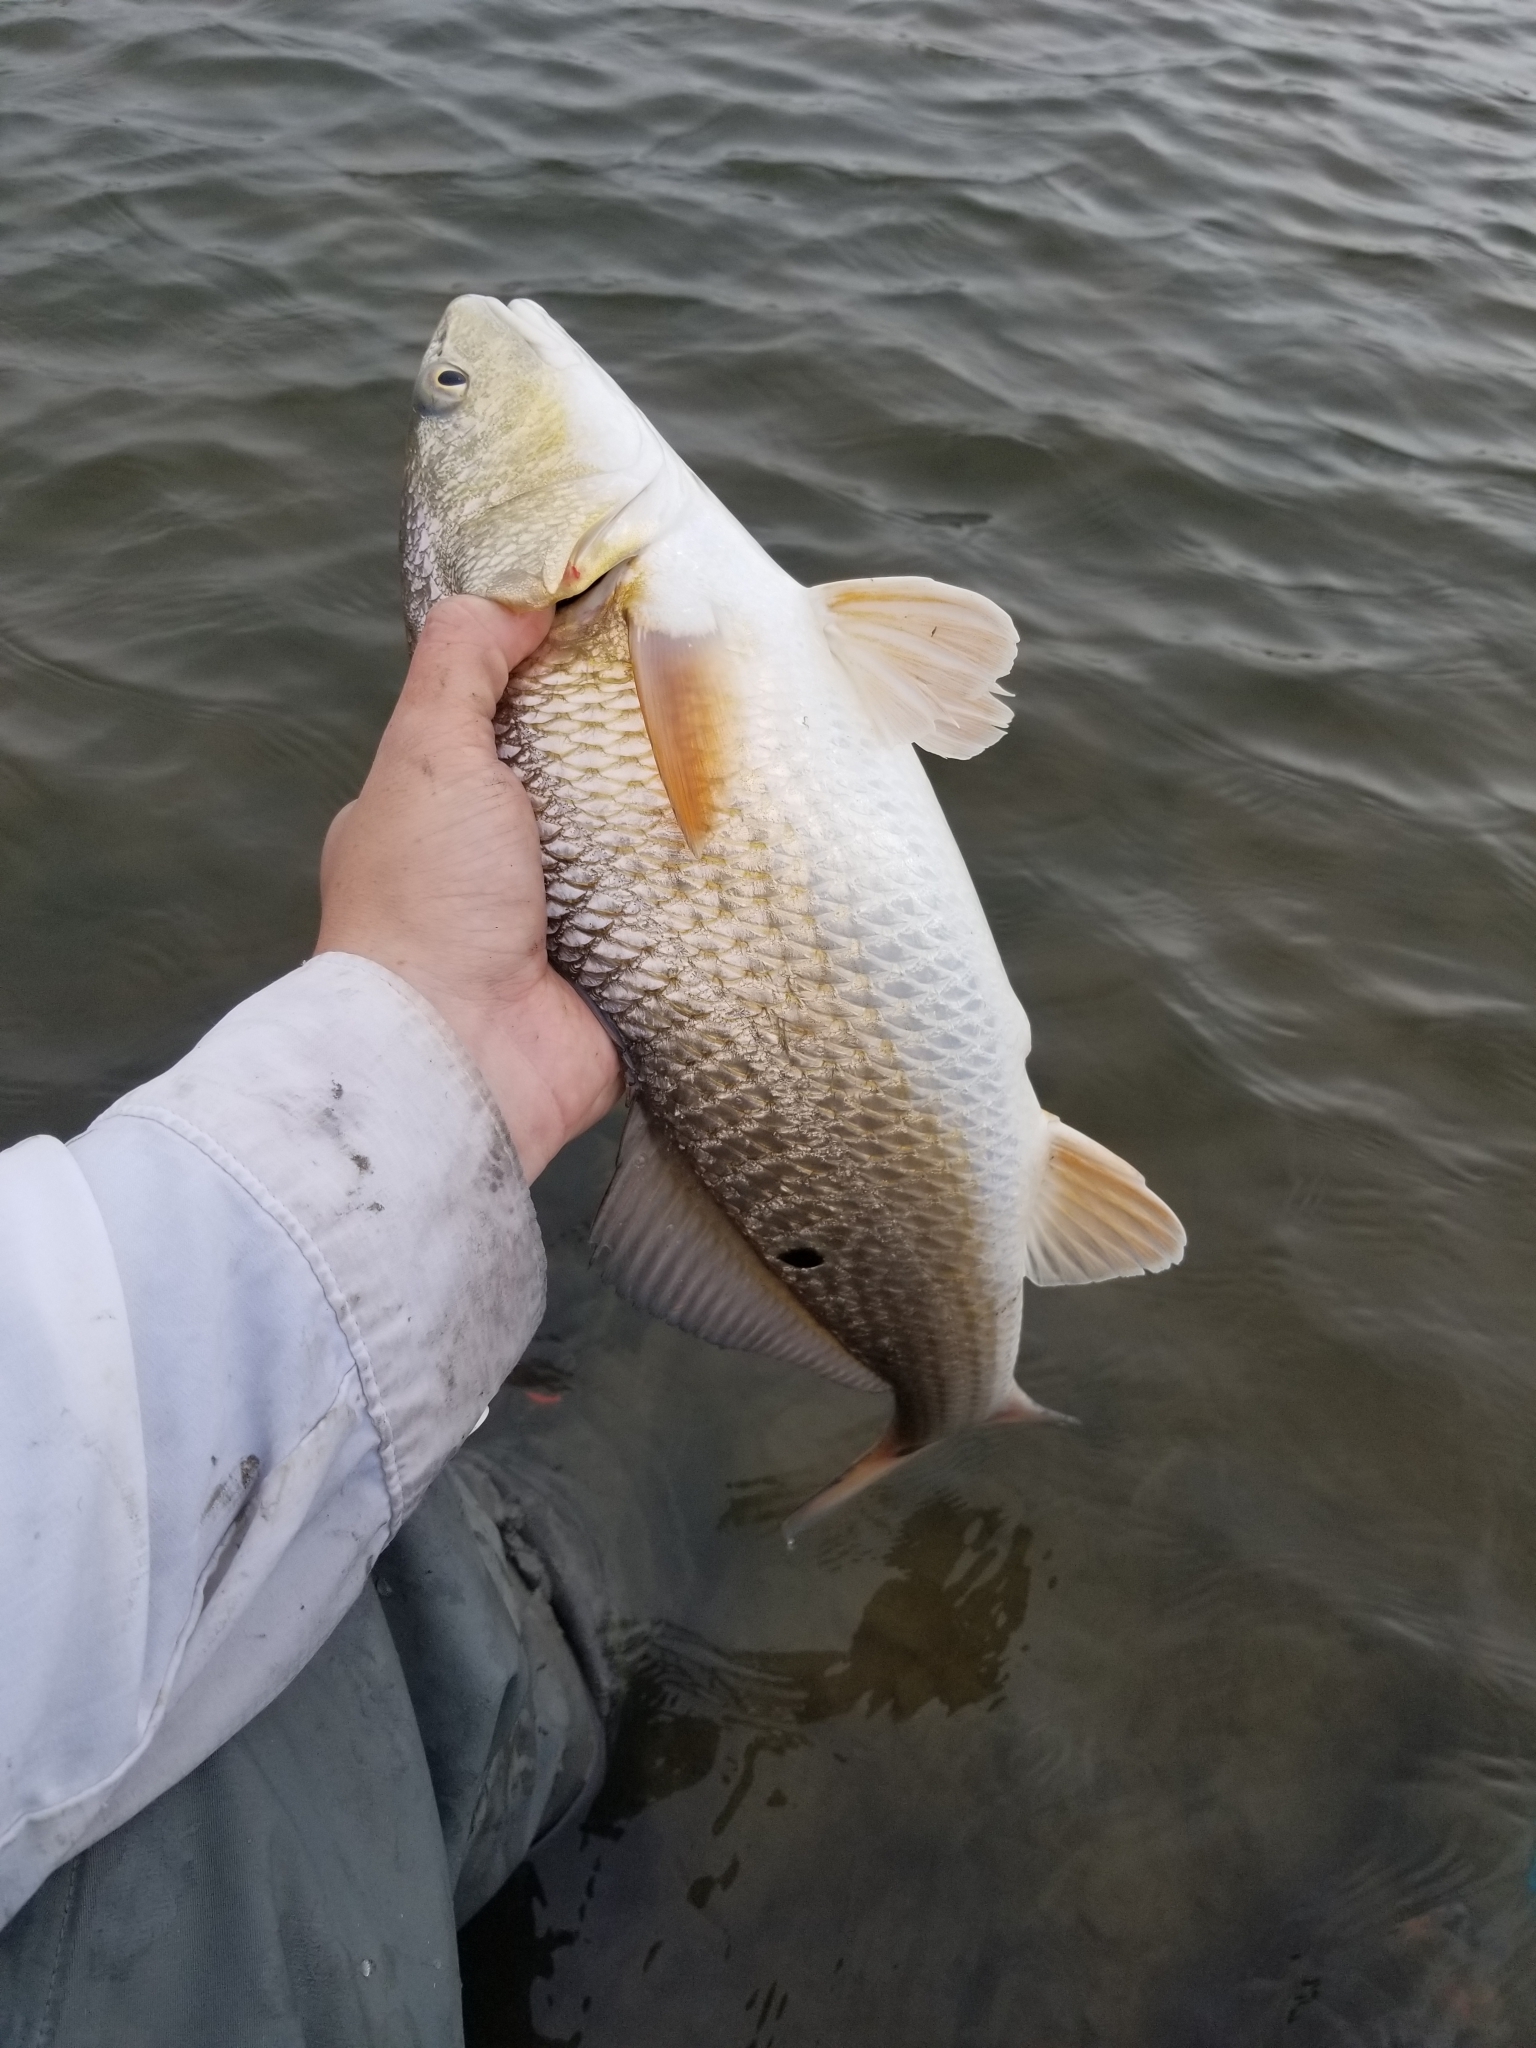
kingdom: Animalia
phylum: Chordata
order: Perciformes
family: Sciaenidae
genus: Sciaenops
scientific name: Sciaenops ocellatus
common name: Red drum
